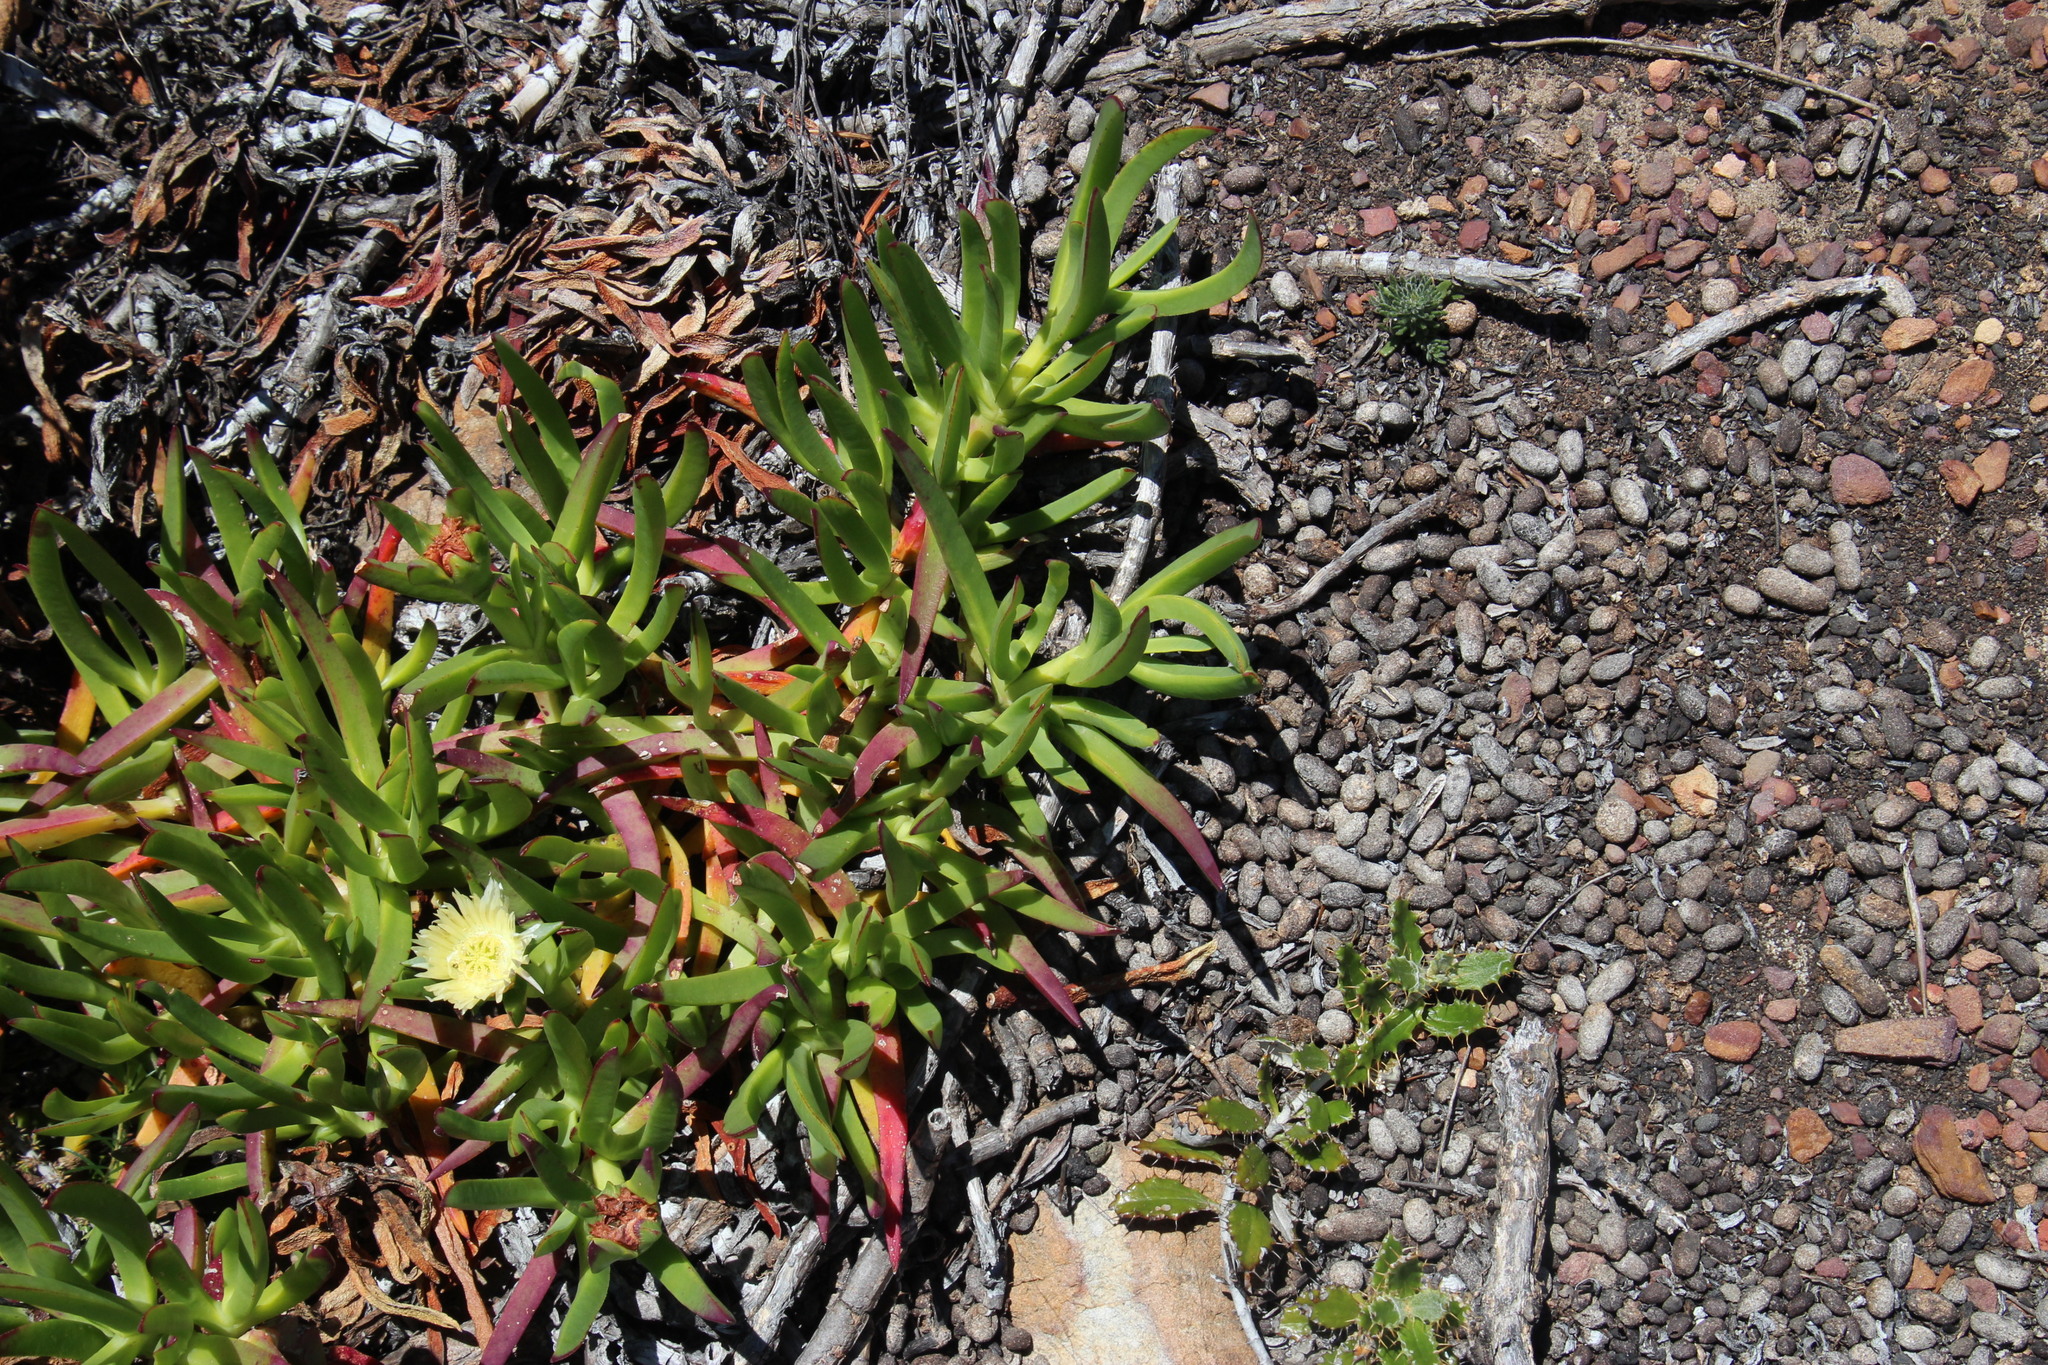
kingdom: Plantae
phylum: Tracheophyta
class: Magnoliopsida
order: Caryophyllales
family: Aizoaceae
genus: Carpobrotus
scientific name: Carpobrotus edulis
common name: Hottentot-fig
